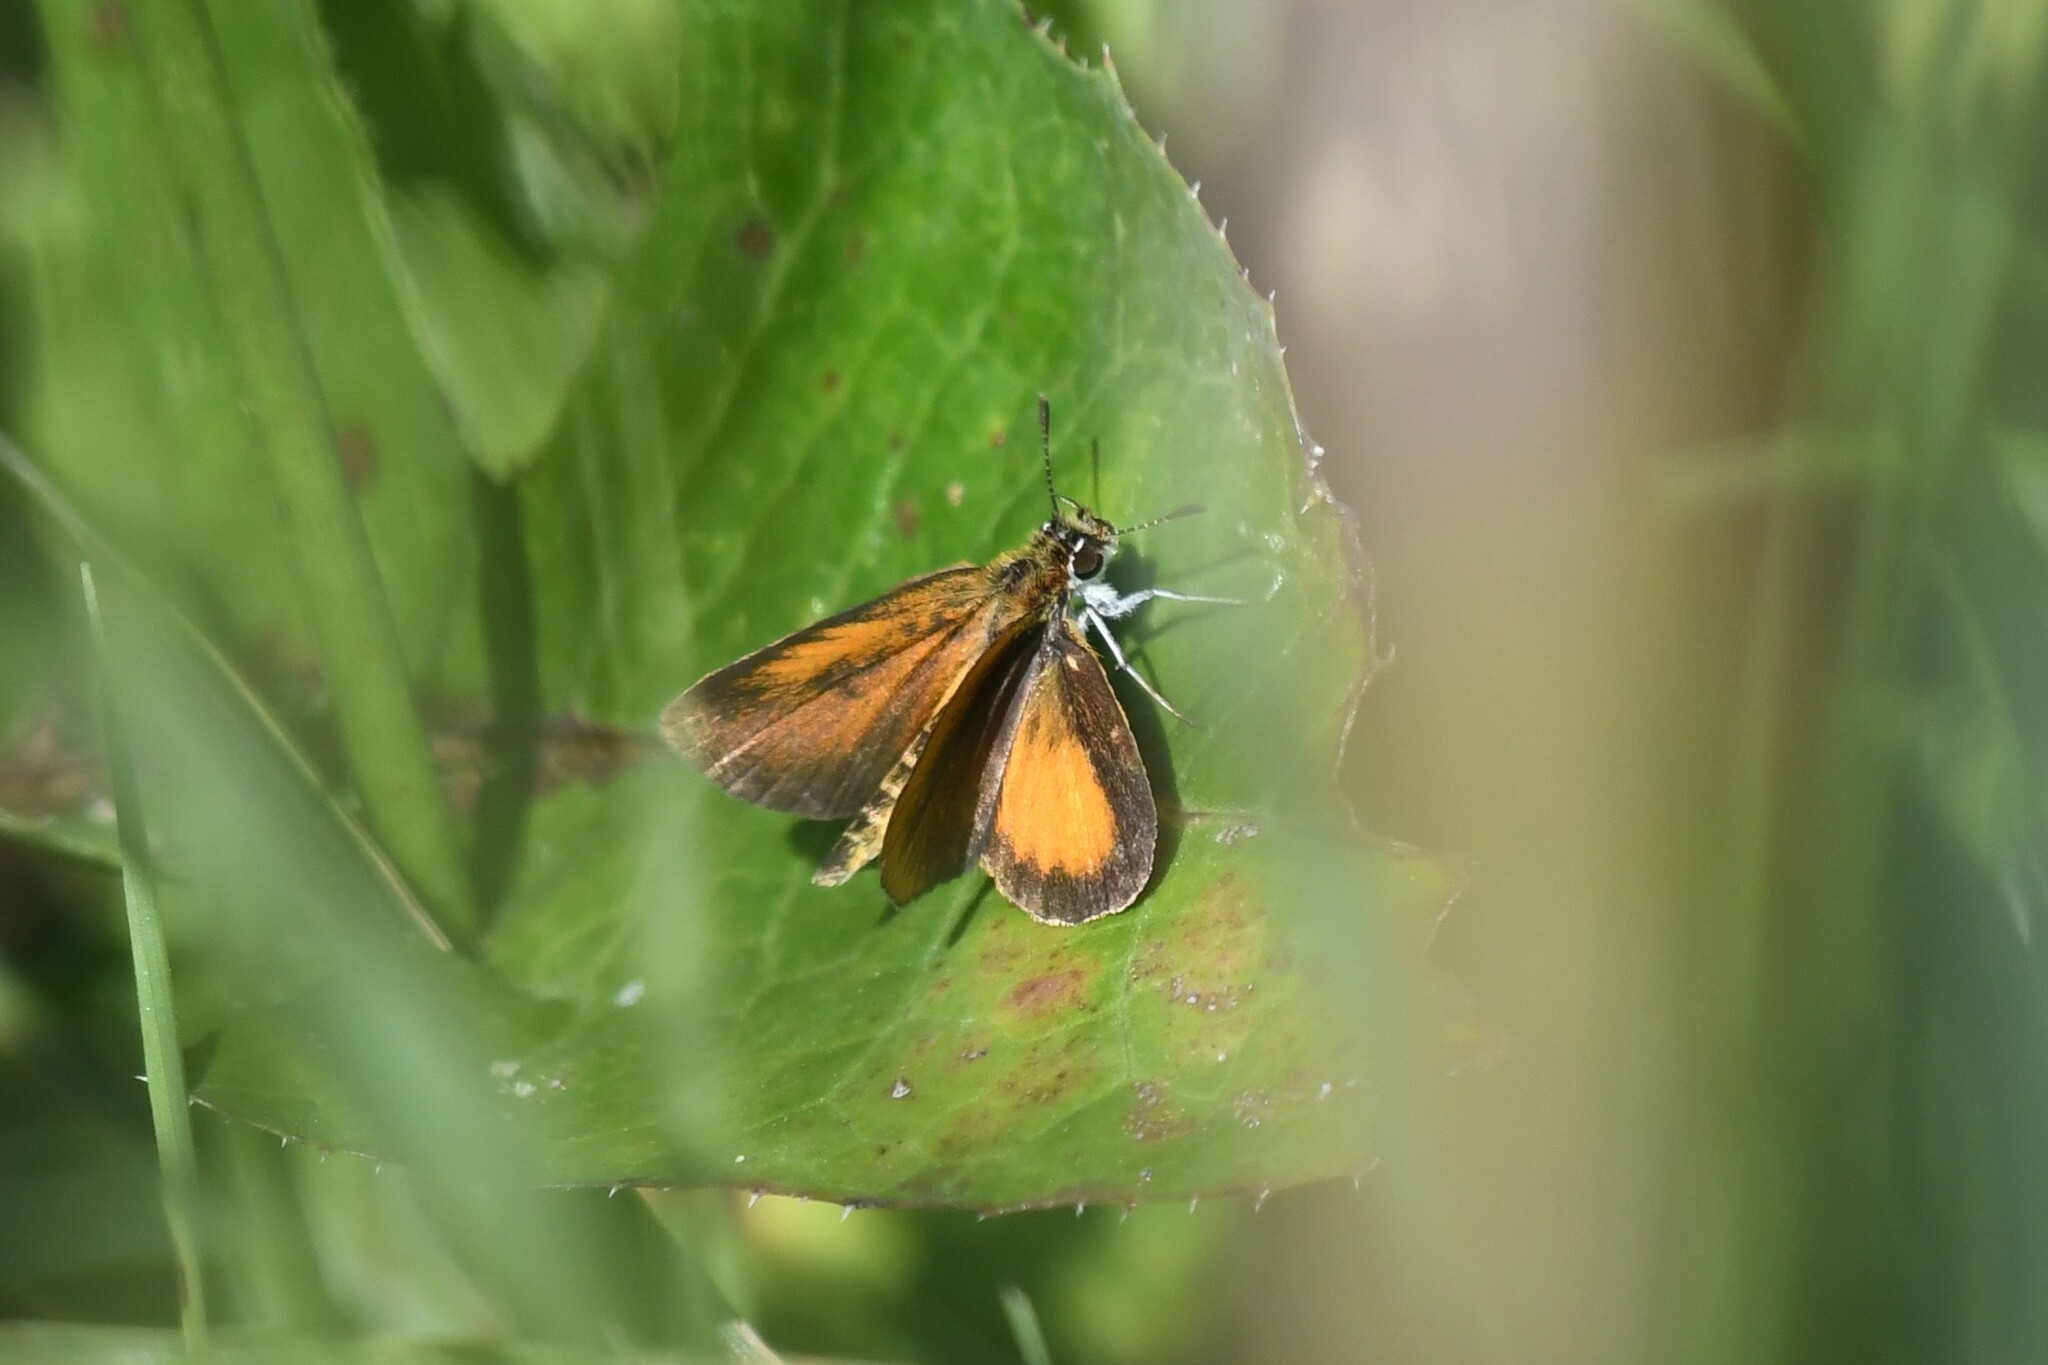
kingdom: Animalia
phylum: Arthropoda
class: Insecta
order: Lepidoptera
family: Hesperiidae
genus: Ancyloxypha
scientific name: Ancyloxypha numitor
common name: Least skipper
